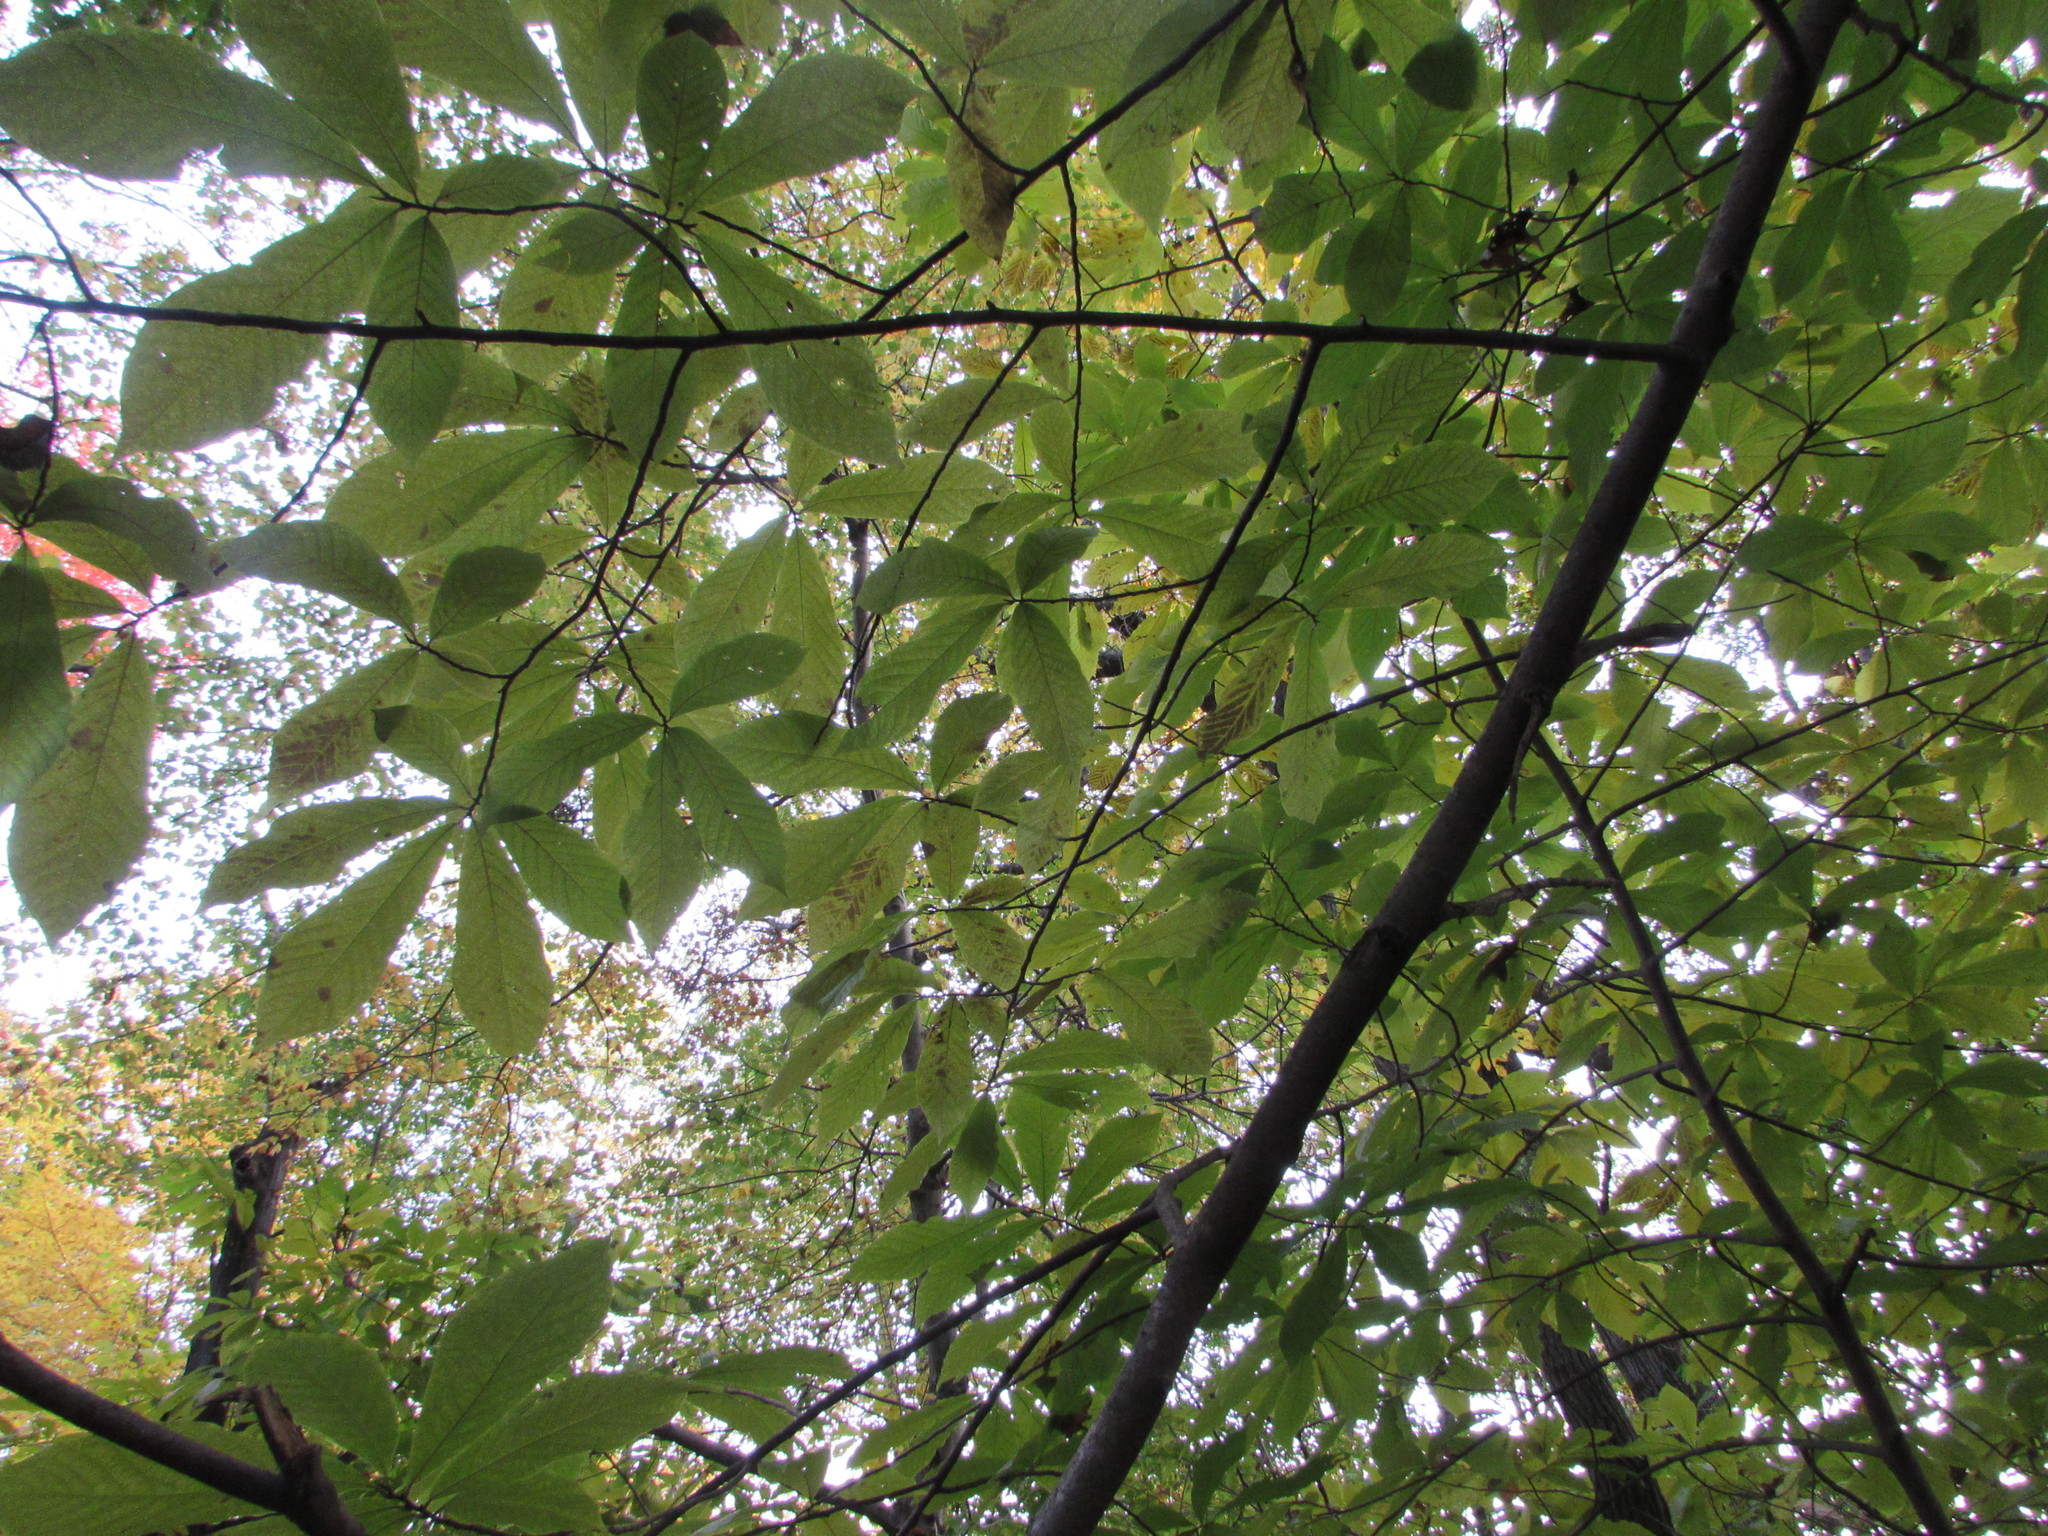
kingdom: Plantae
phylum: Tracheophyta
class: Magnoliopsida
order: Magnoliales
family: Annonaceae
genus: Asimina
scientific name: Asimina triloba
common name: Dog-banana
